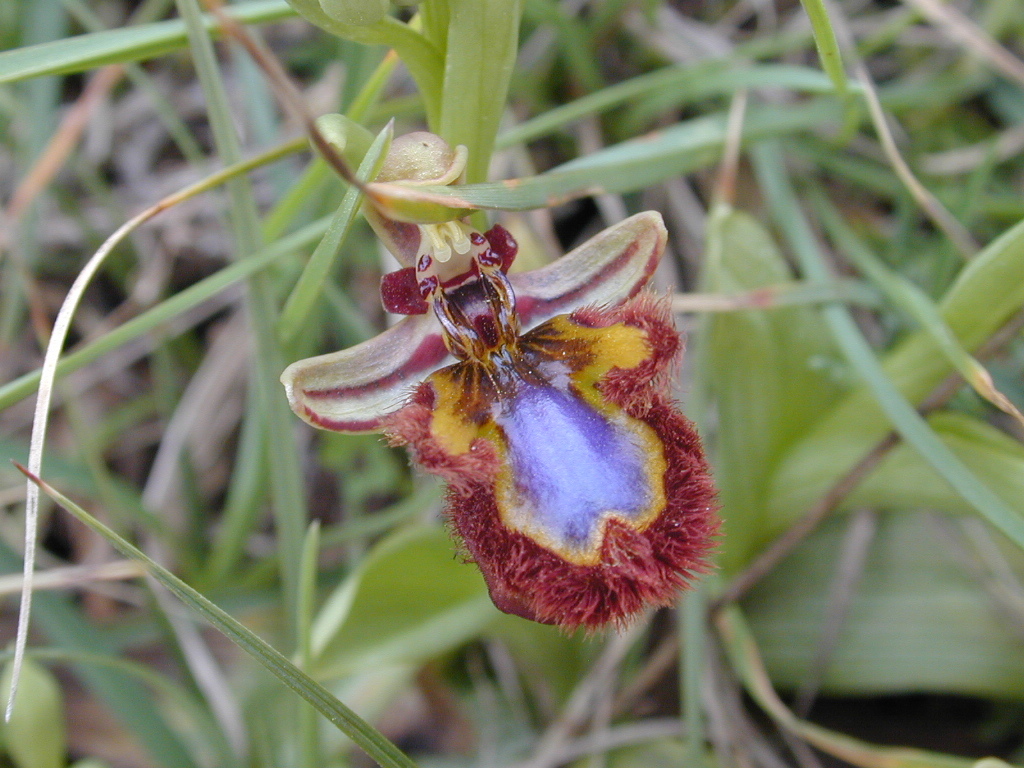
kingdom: Plantae
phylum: Tracheophyta
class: Liliopsida
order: Asparagales
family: Orchidaceae
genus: Ophrys
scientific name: Ophrys speculum
